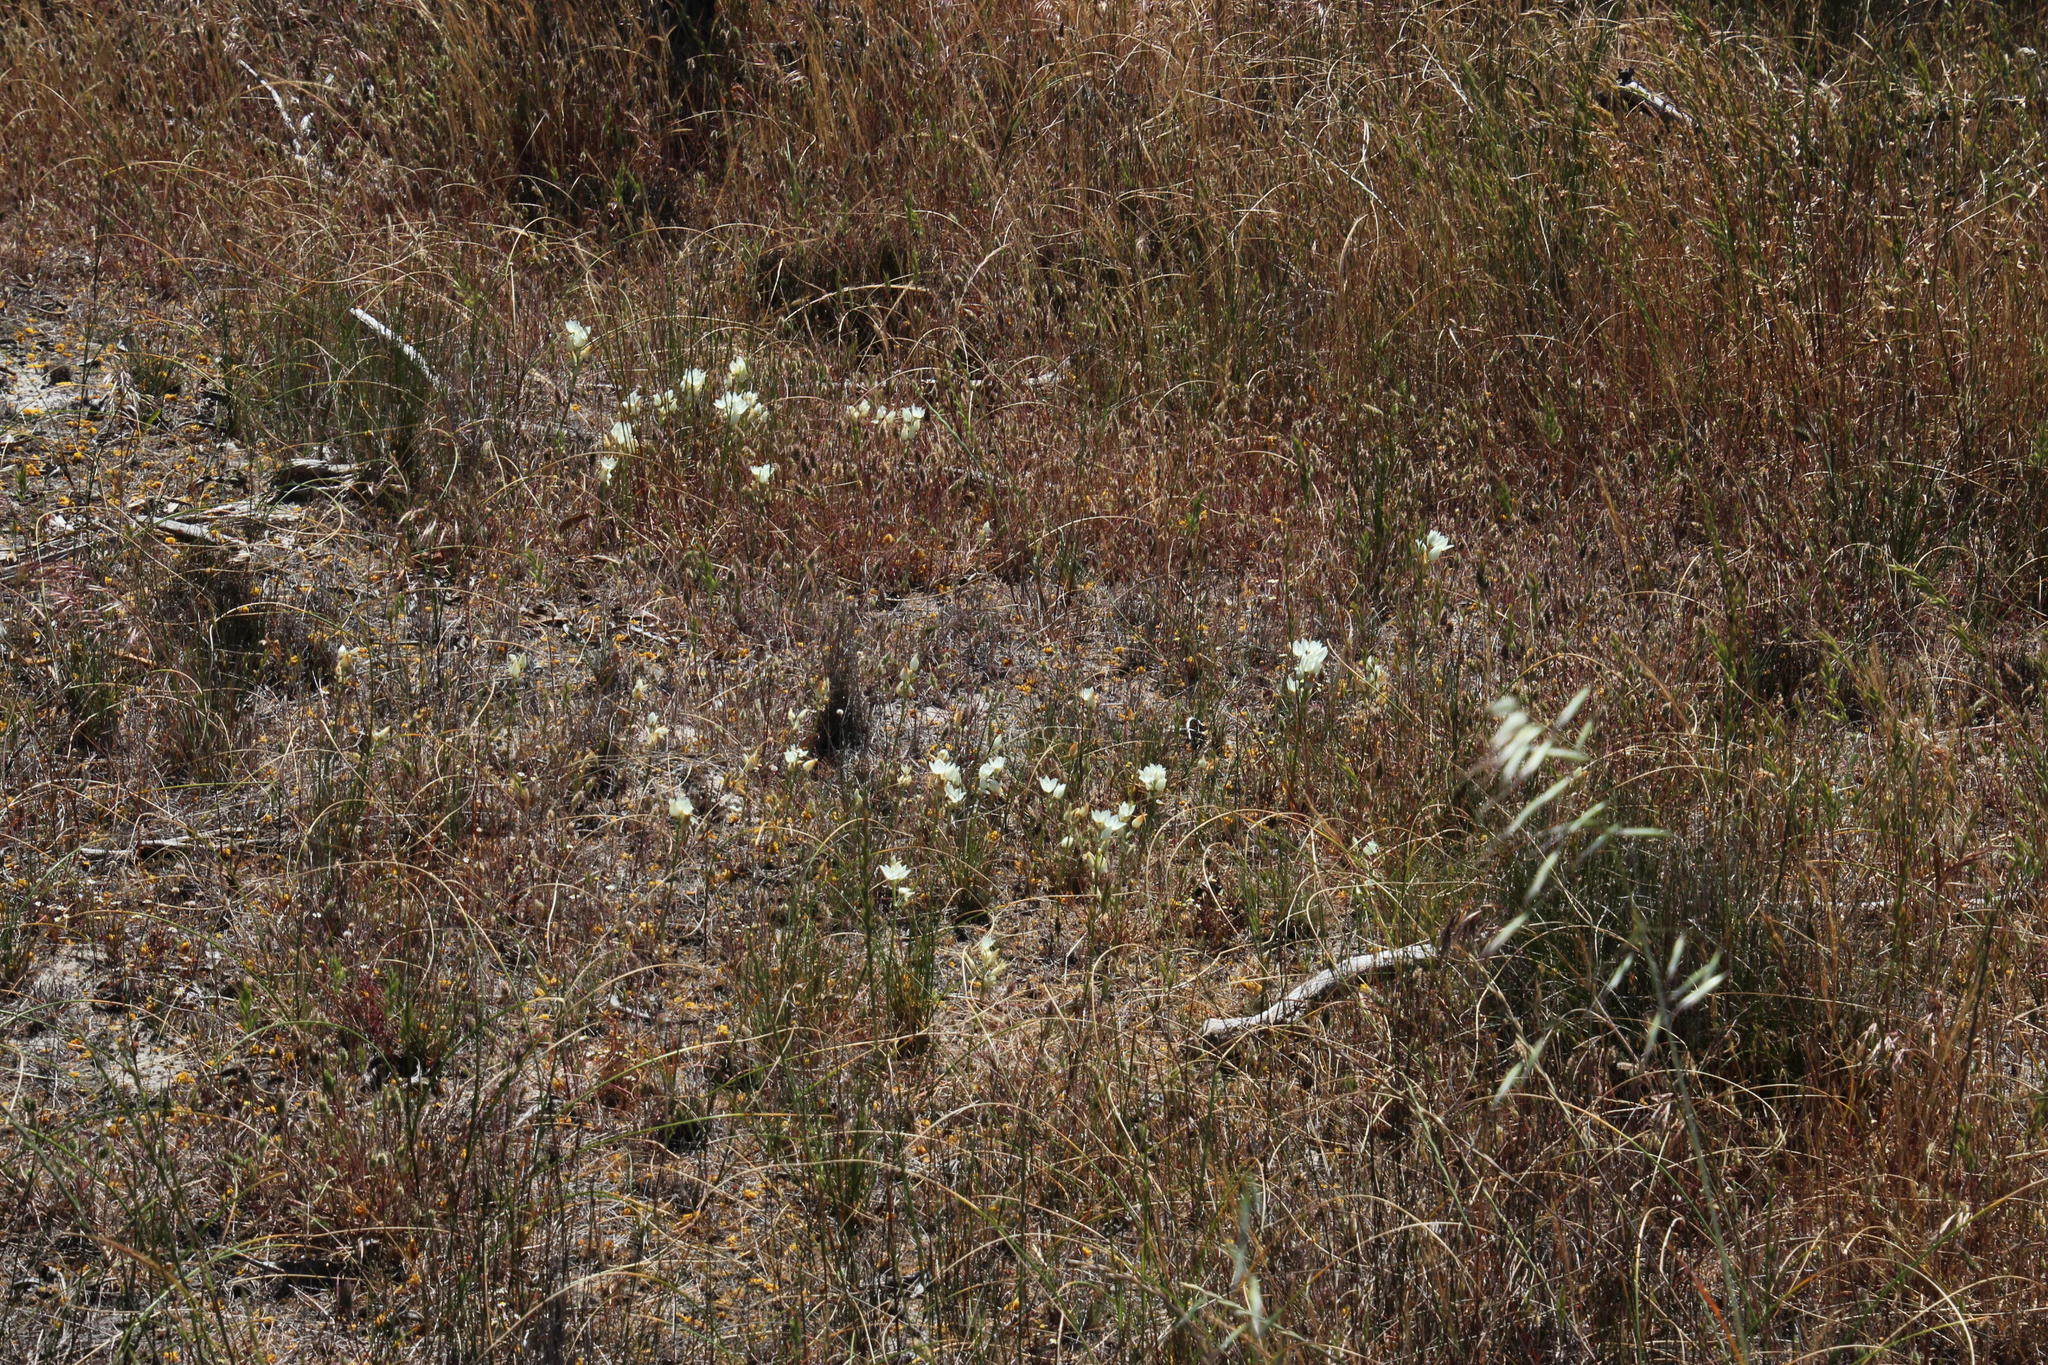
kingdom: Plantae
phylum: Tracheophyta
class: Liliopsida
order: Asparagales
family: Asparagaceae
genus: Ornithogalum
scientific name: Ornithogalum thyrsoides
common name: Chincherinchee
